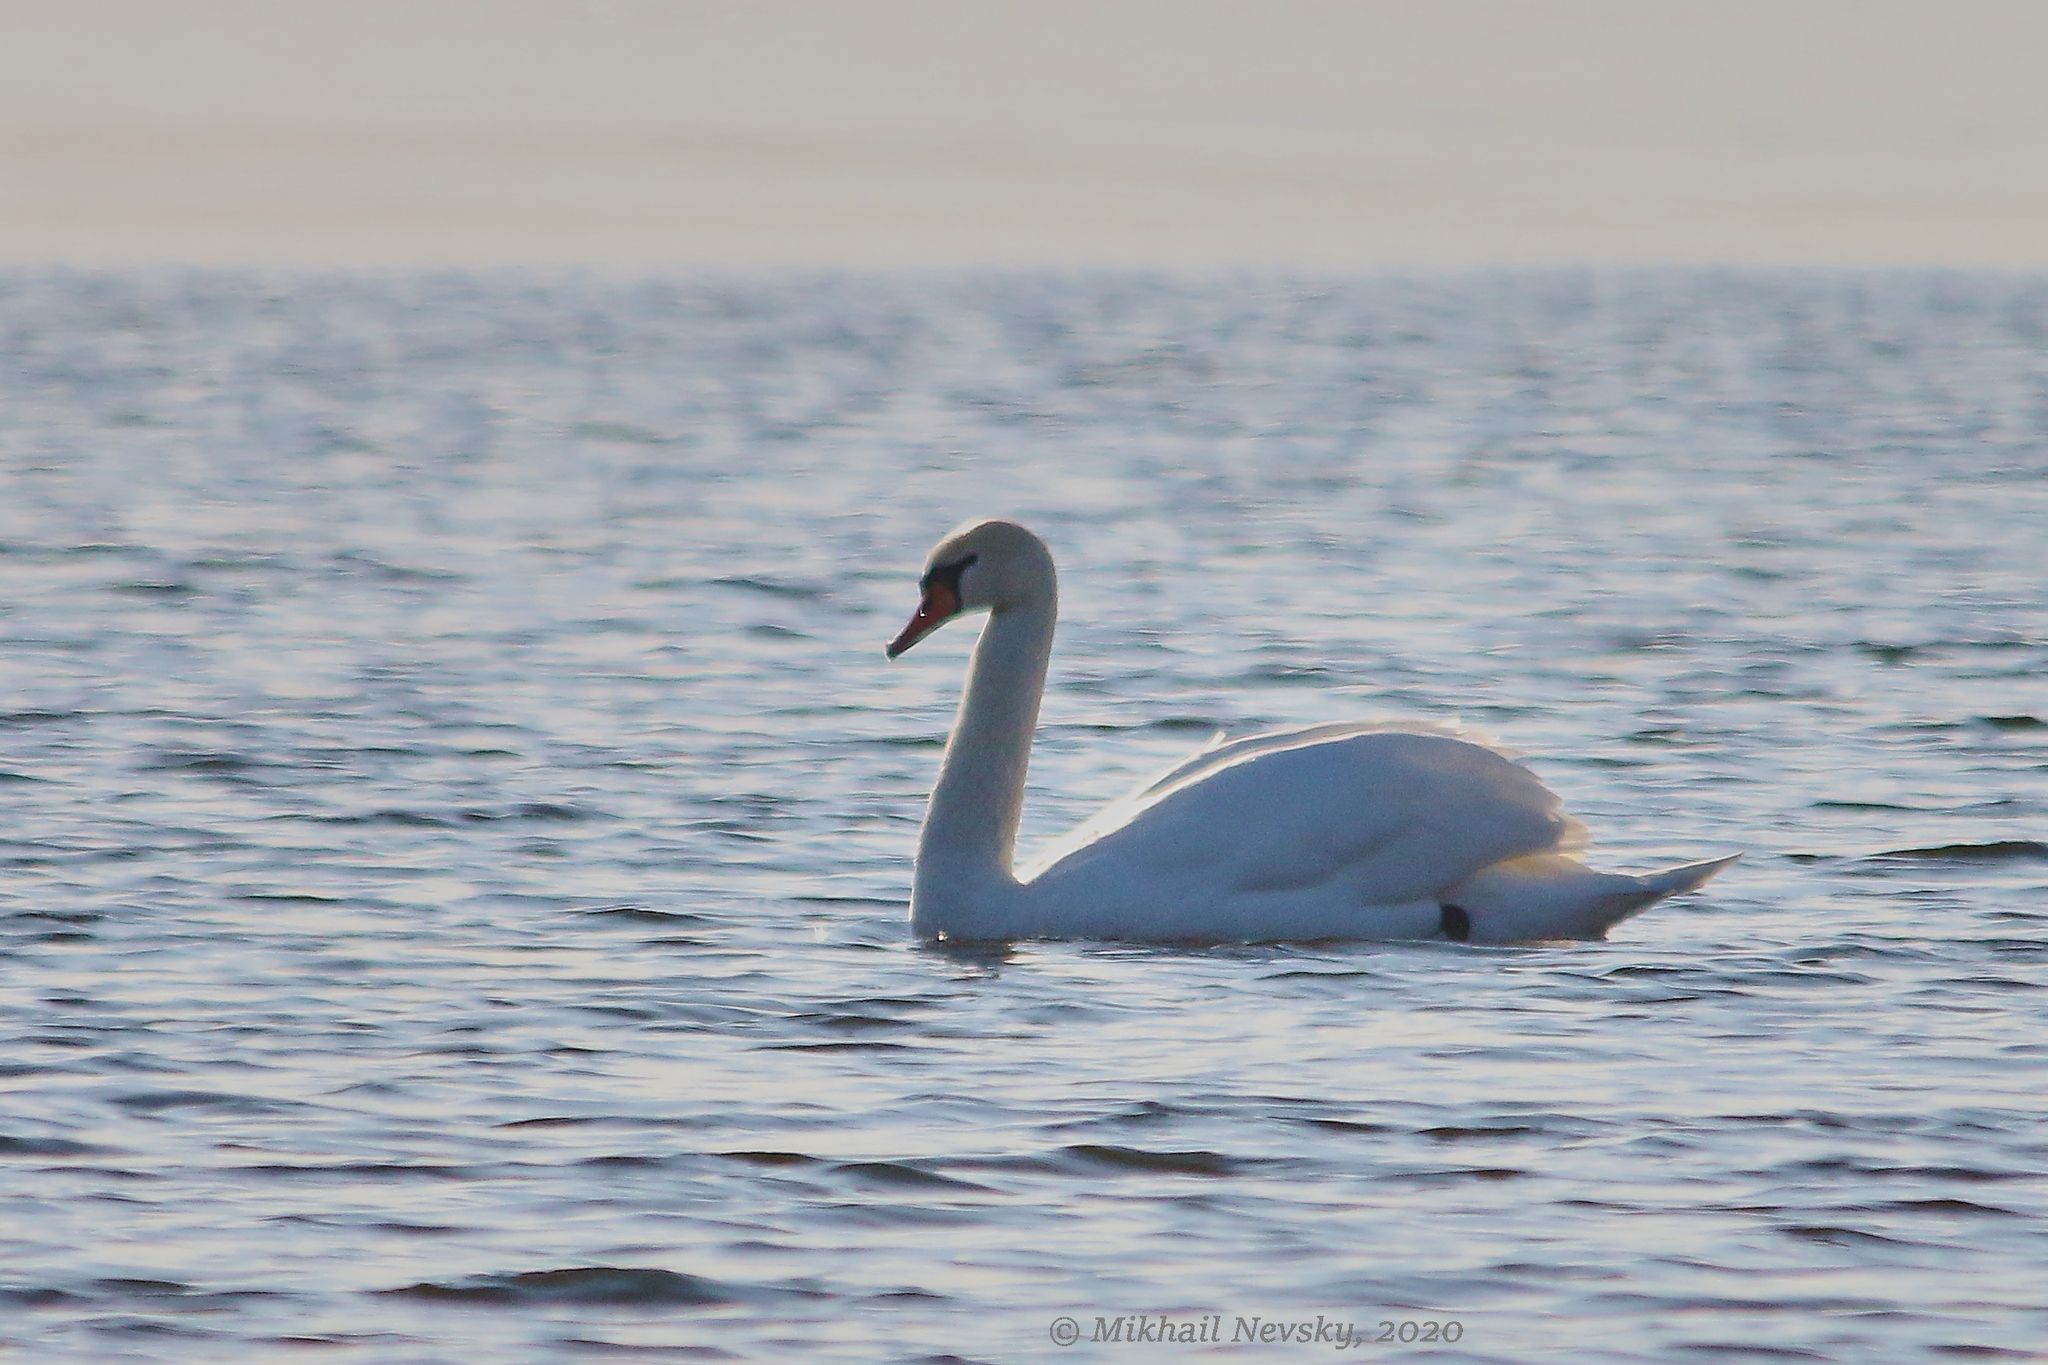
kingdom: Animalia
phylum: Chordata
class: Aves
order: Anseriformes
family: Anatidae
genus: Cygnus
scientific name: Cygnus olor
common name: Mute swan
